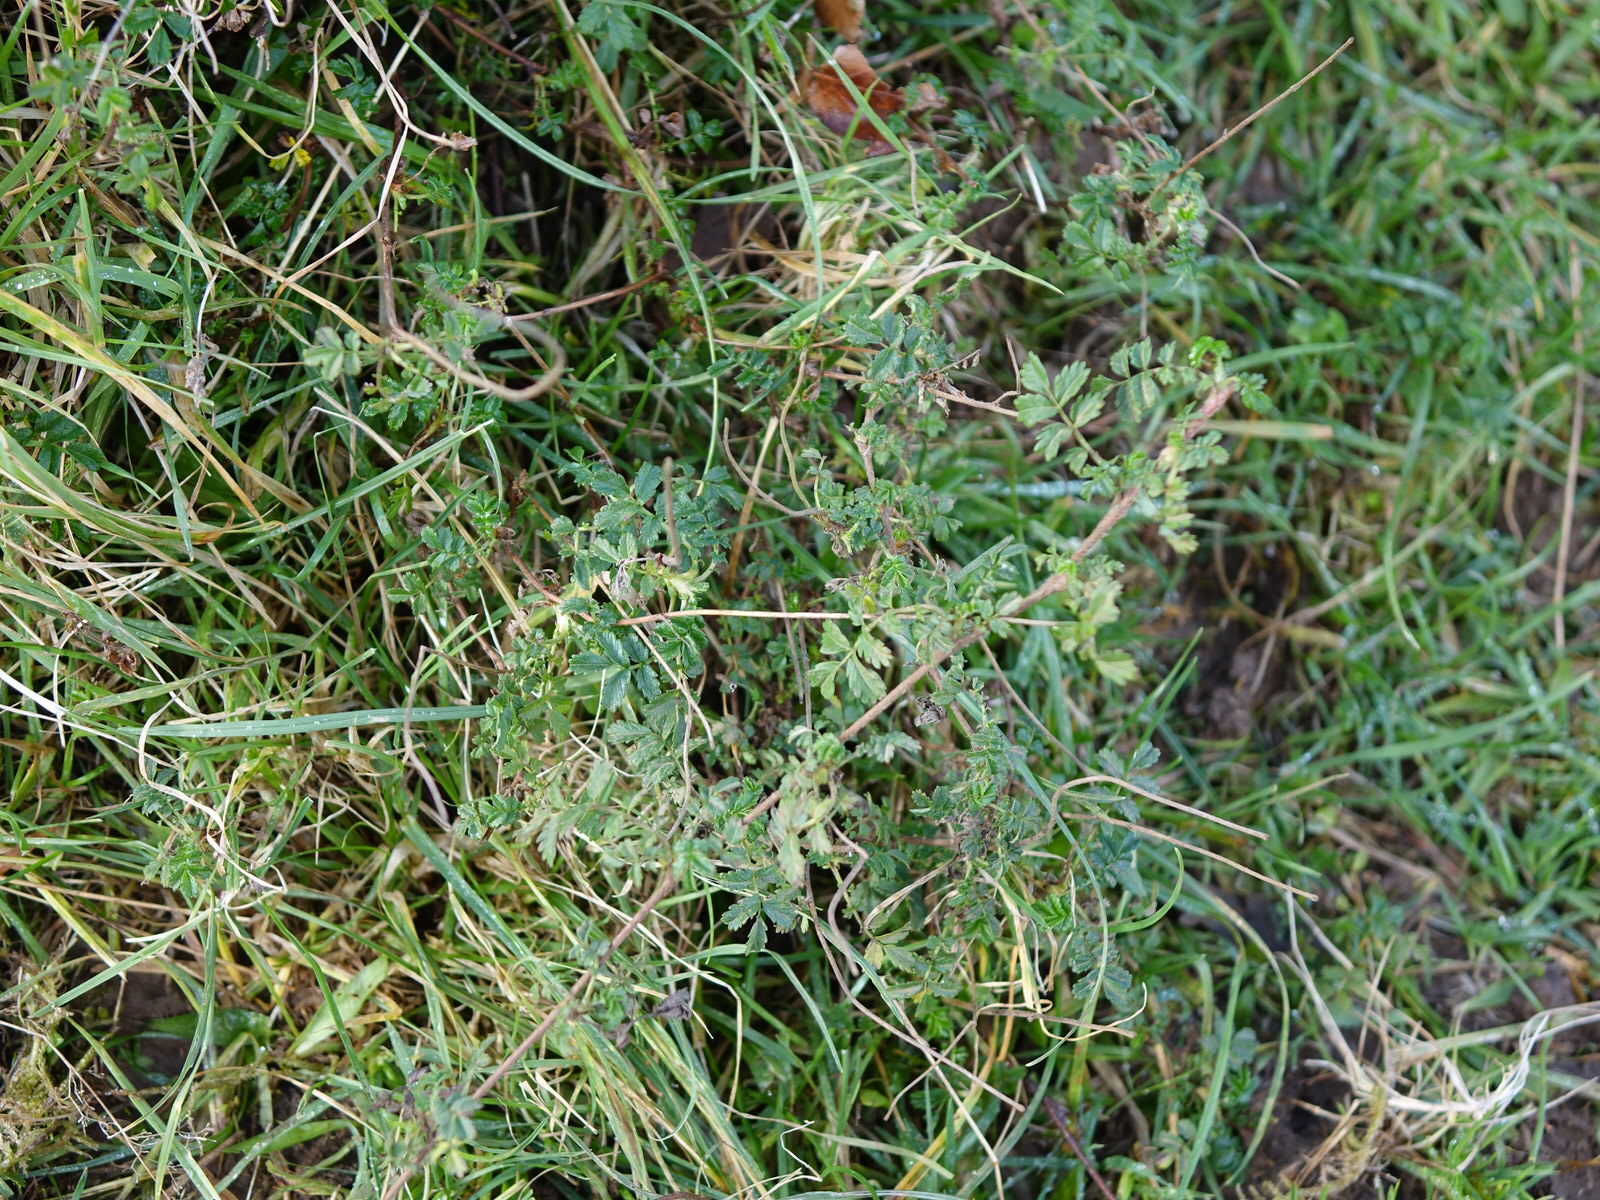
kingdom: Plantae
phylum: Tracheophyta
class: Magnoliopsida
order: Rosales
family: Rosaceae
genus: Acaena
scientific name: Acaena novae-zelandiae
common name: Pirri-pirri-bur
